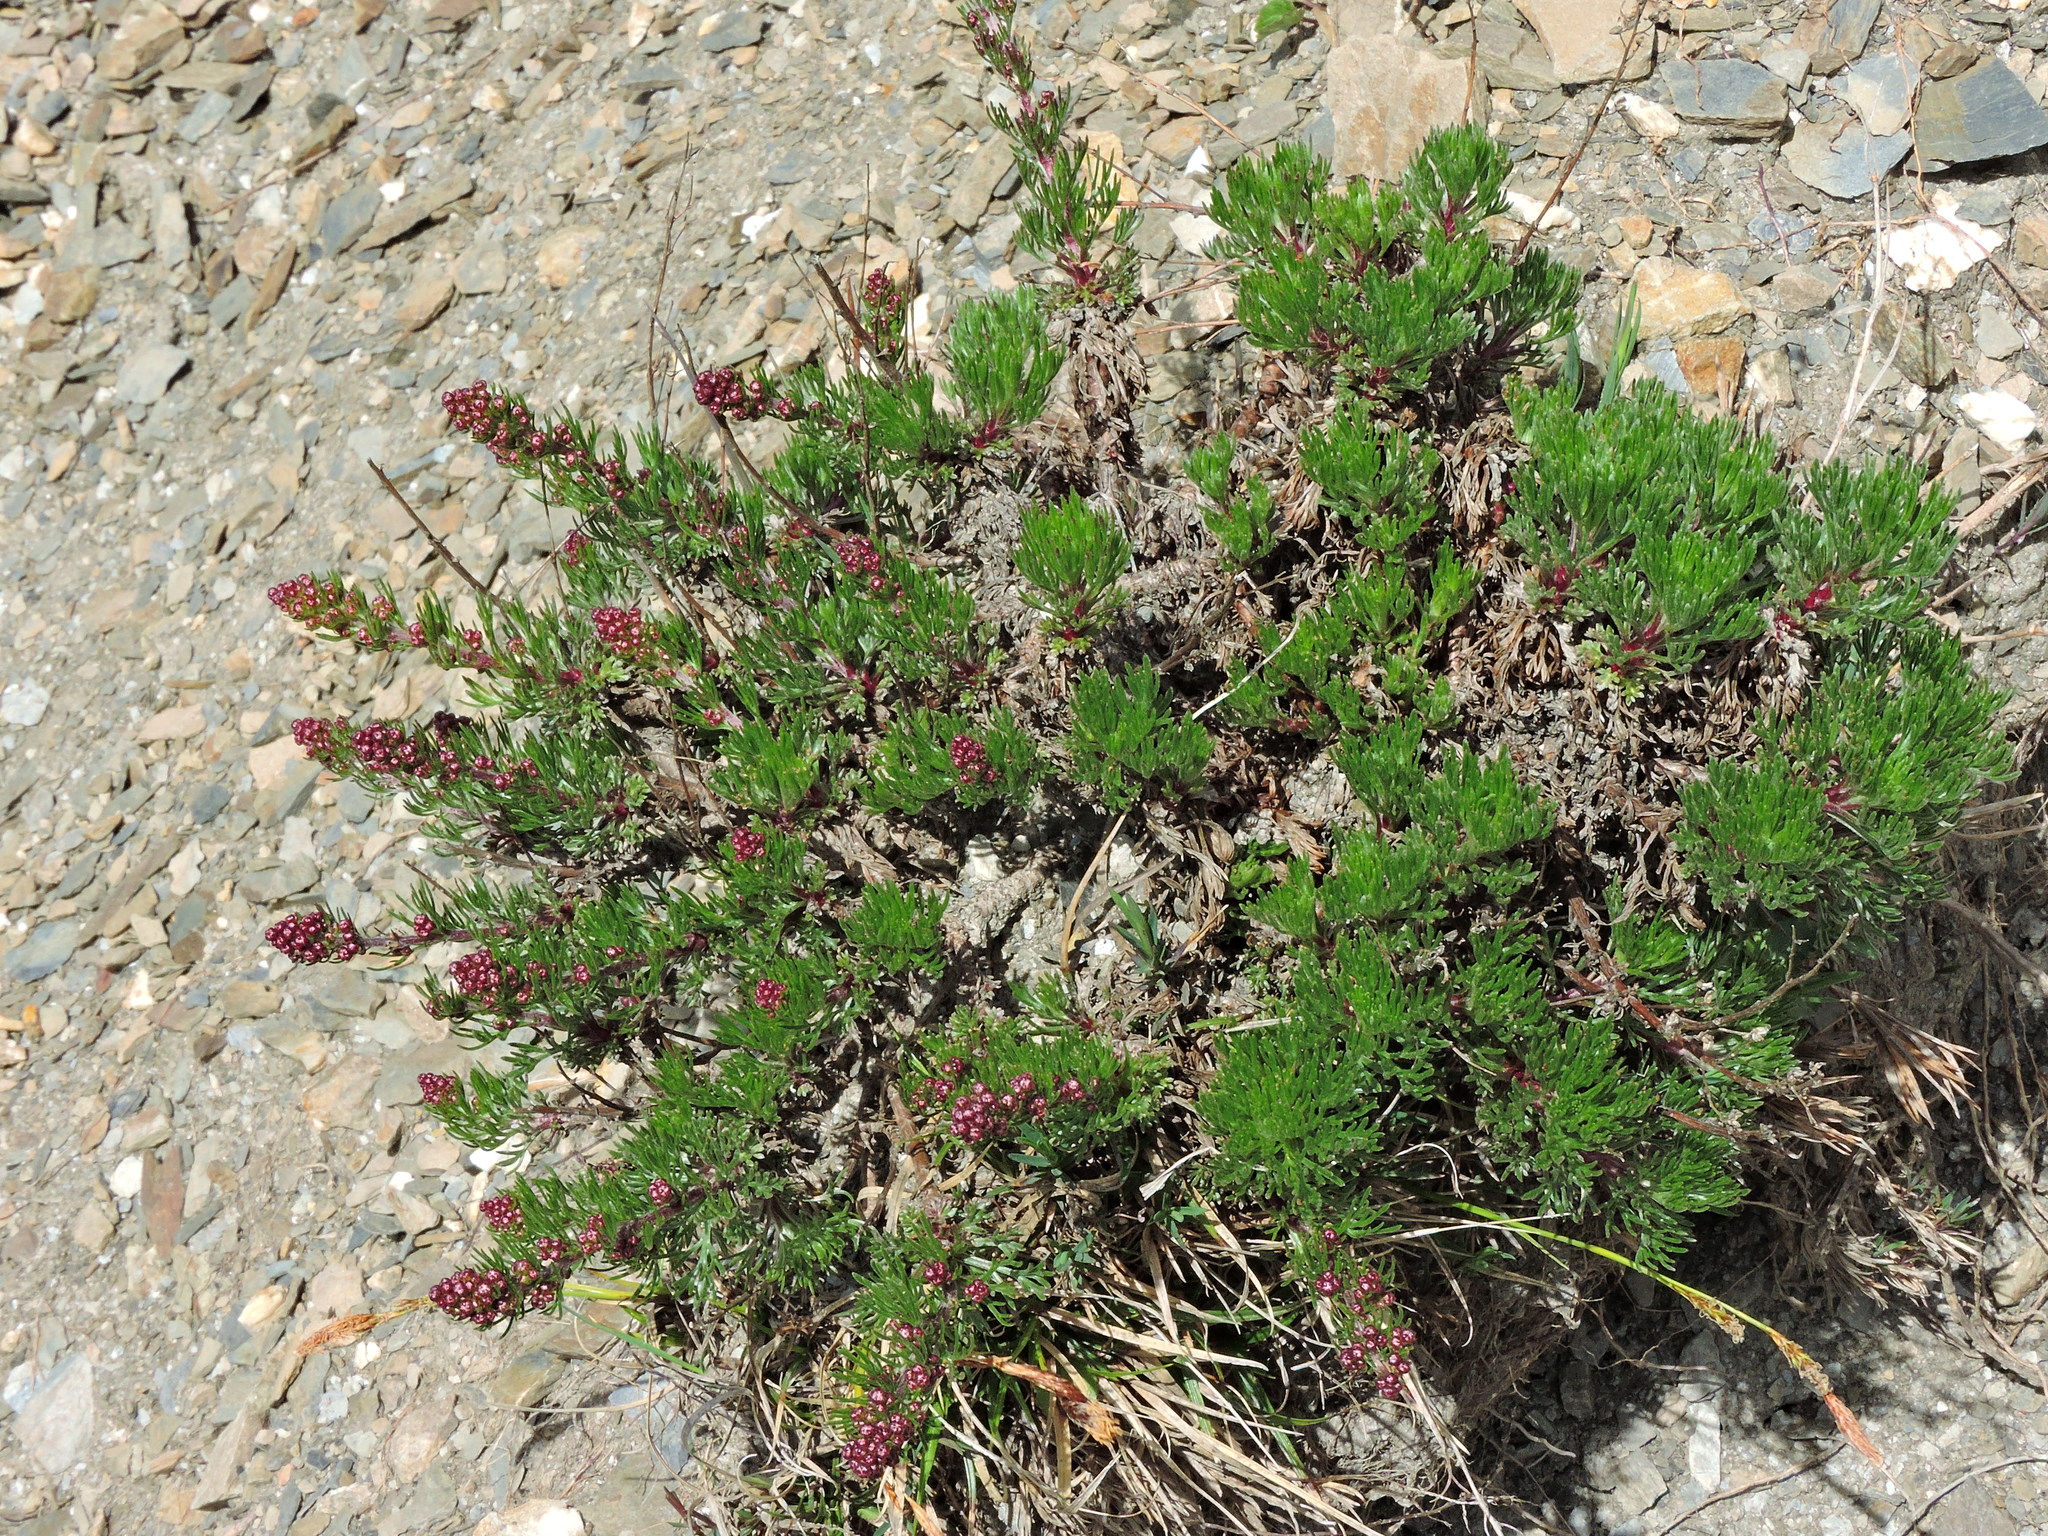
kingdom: Plantae
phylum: Tracheophyta
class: Magnoliopsida
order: Asterales
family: Asteraceae
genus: Artemisia
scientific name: Artemisia oligocarpa
